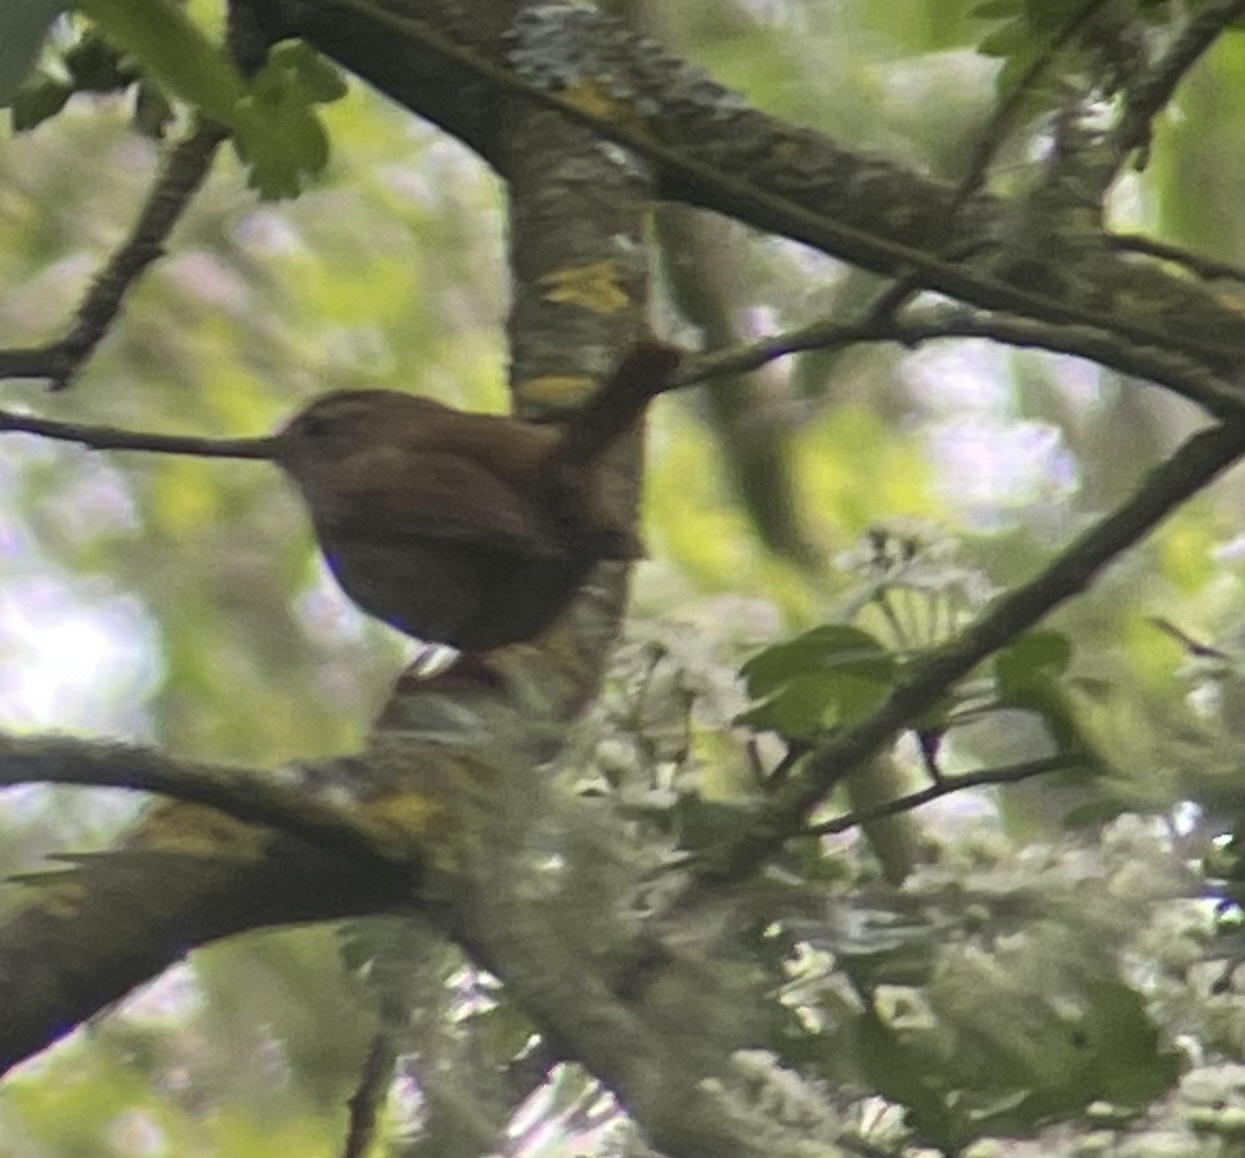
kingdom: Animalia
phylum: Chordata
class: Aves
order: Passeriformes
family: Troglodytidae
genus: Troglodytes
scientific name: Troglodytes troglodytes
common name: Eurasian wren
